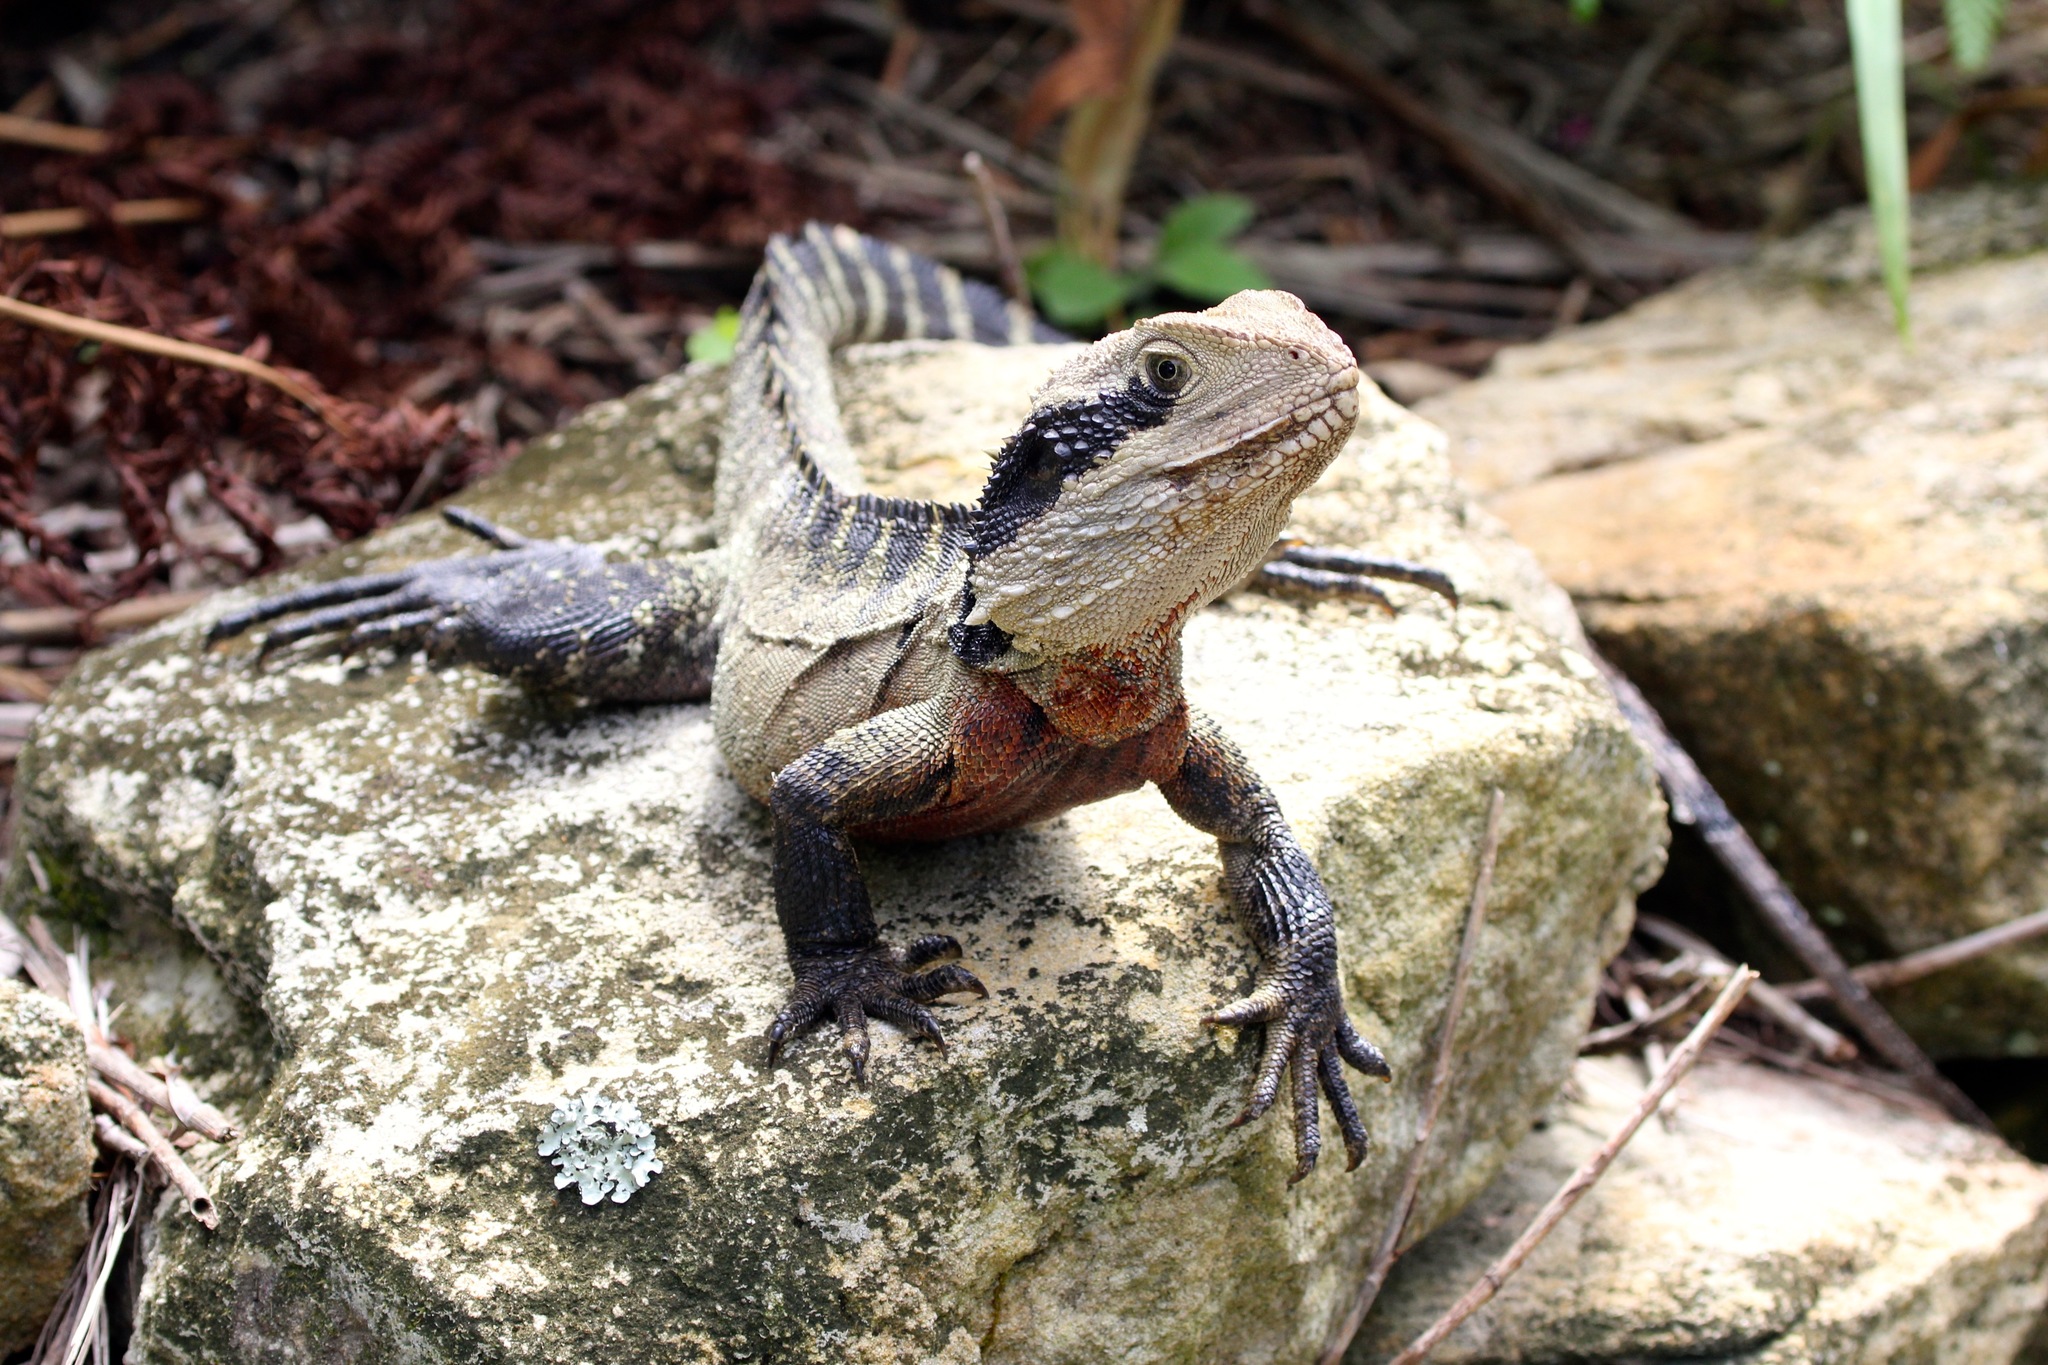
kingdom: Animalia
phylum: Chordata
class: Squamata
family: Agamidae
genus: Intellagama
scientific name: Intellagama lesueurii
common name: Eastern water dragon
